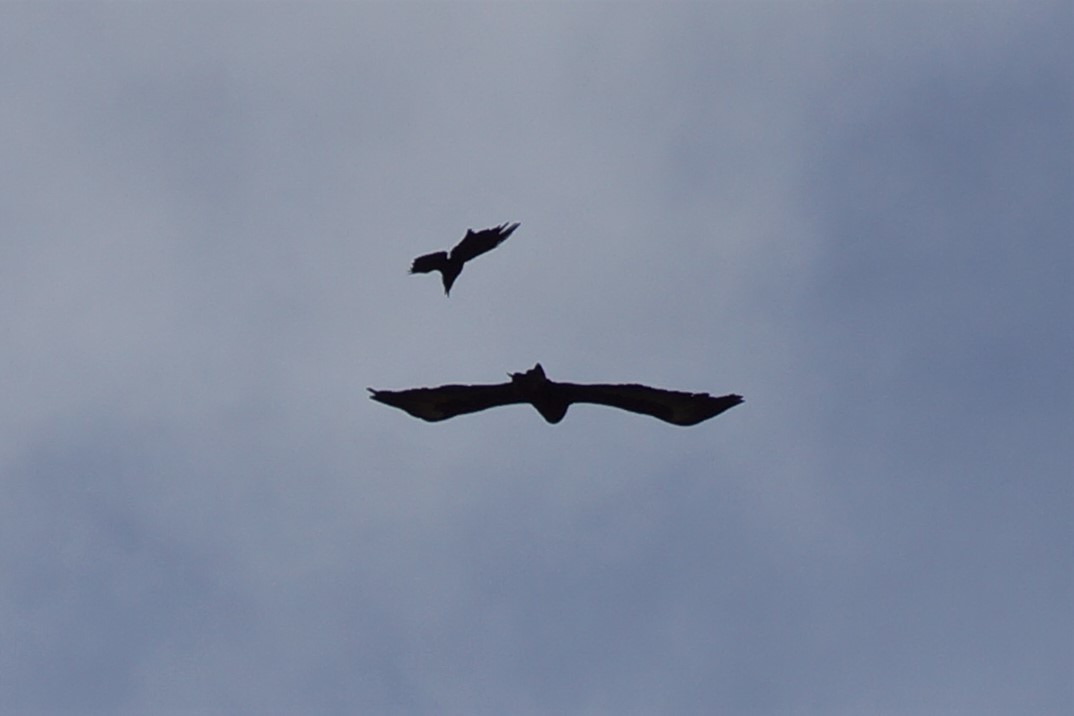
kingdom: Animalia
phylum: Chordata
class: Aves
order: Accipitriformes
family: Accipitridae
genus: Aquila
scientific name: Aquila audax
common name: Wedge-tailed eagle
